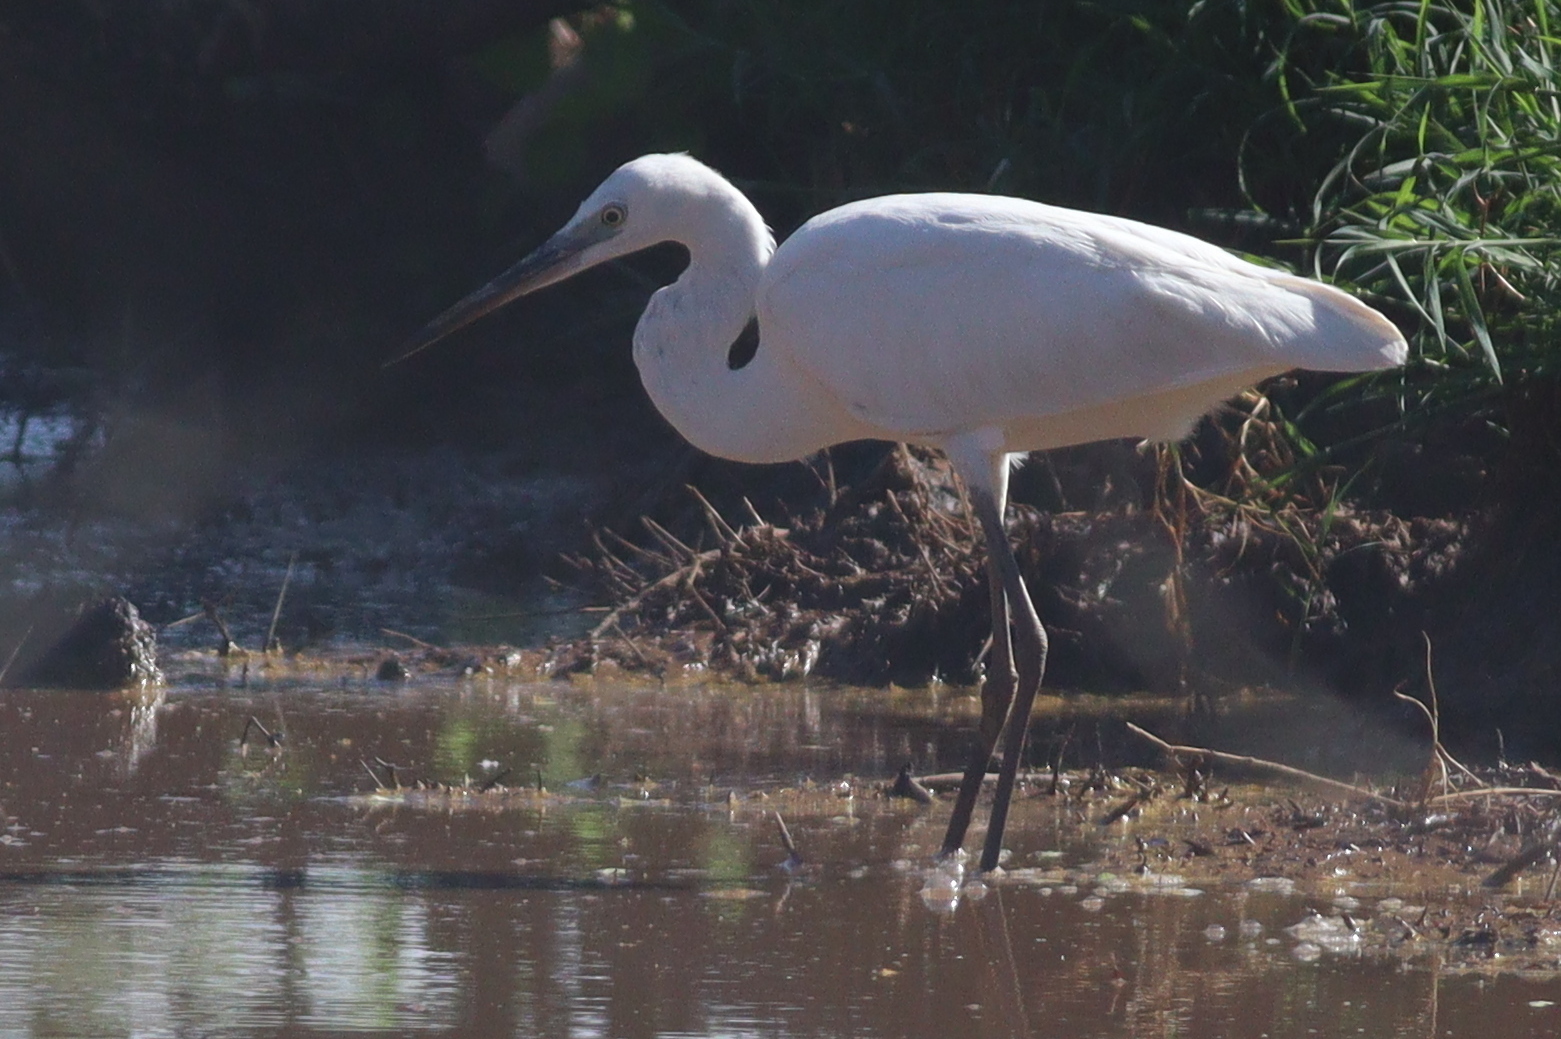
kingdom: Animalia
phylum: Chordata
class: Aves
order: Pelecaniformes
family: Ardeidae
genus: Egretta
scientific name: Egretta garzetta
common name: Little egret
